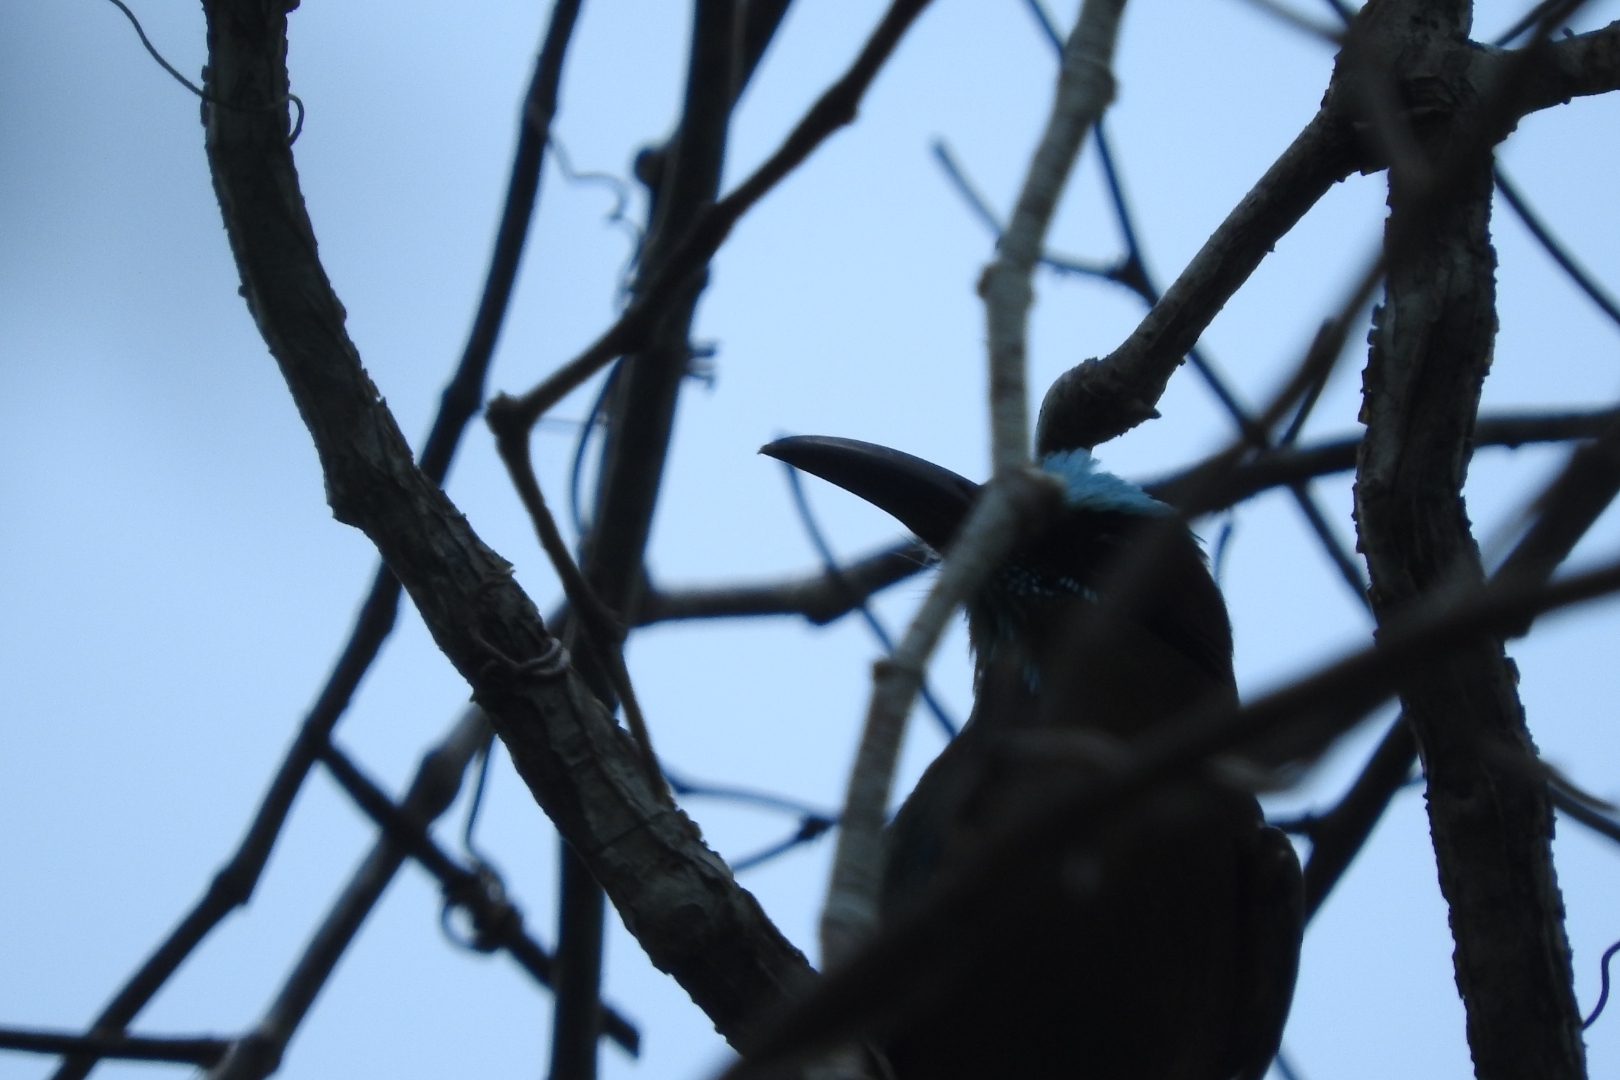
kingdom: Animalia
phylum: Chordata
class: Aves
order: Coraciiformes
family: Momotidae
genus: Eumomota
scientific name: Eumomota superciliosa
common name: Turquoise-browed motmot
